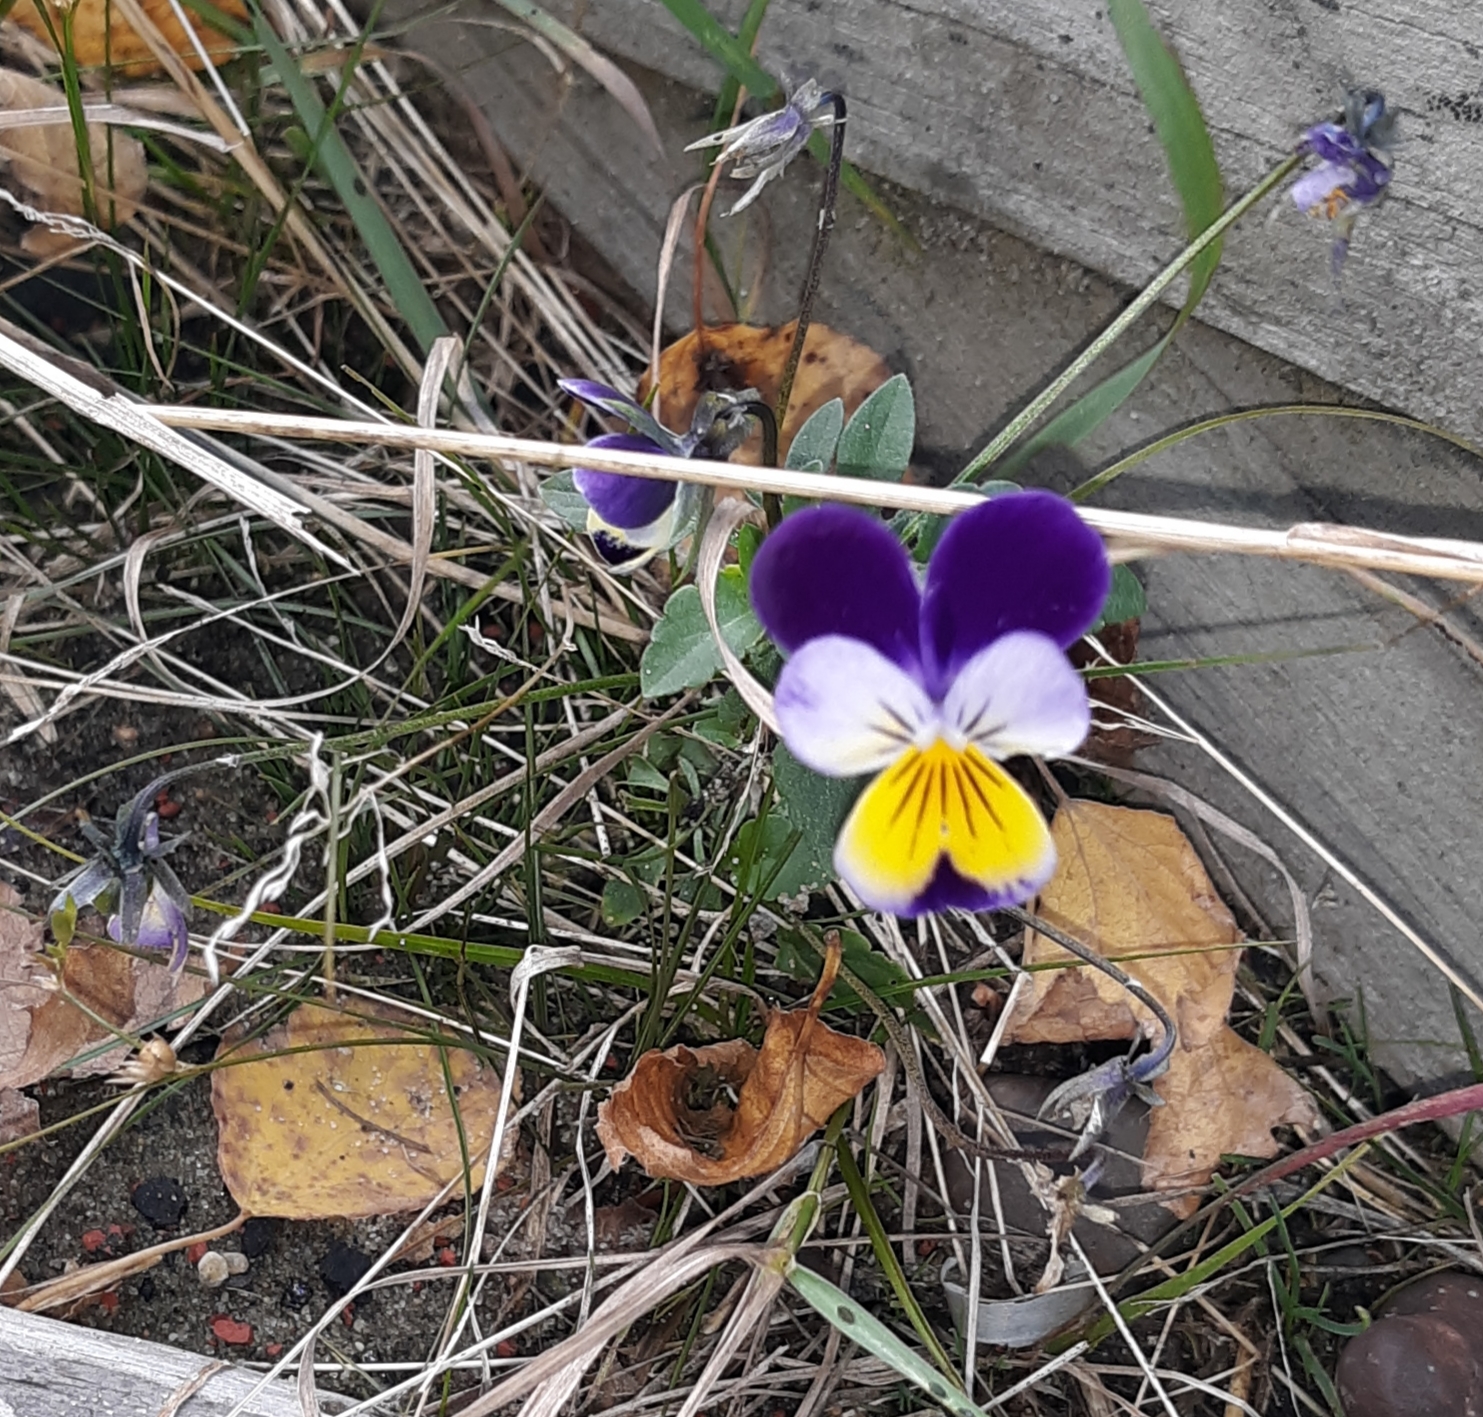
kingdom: Plantae
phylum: Tracheophyta
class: Magnoliopsida
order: Malpighiales
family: Violaceae
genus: Viola
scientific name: Viola williamsii
